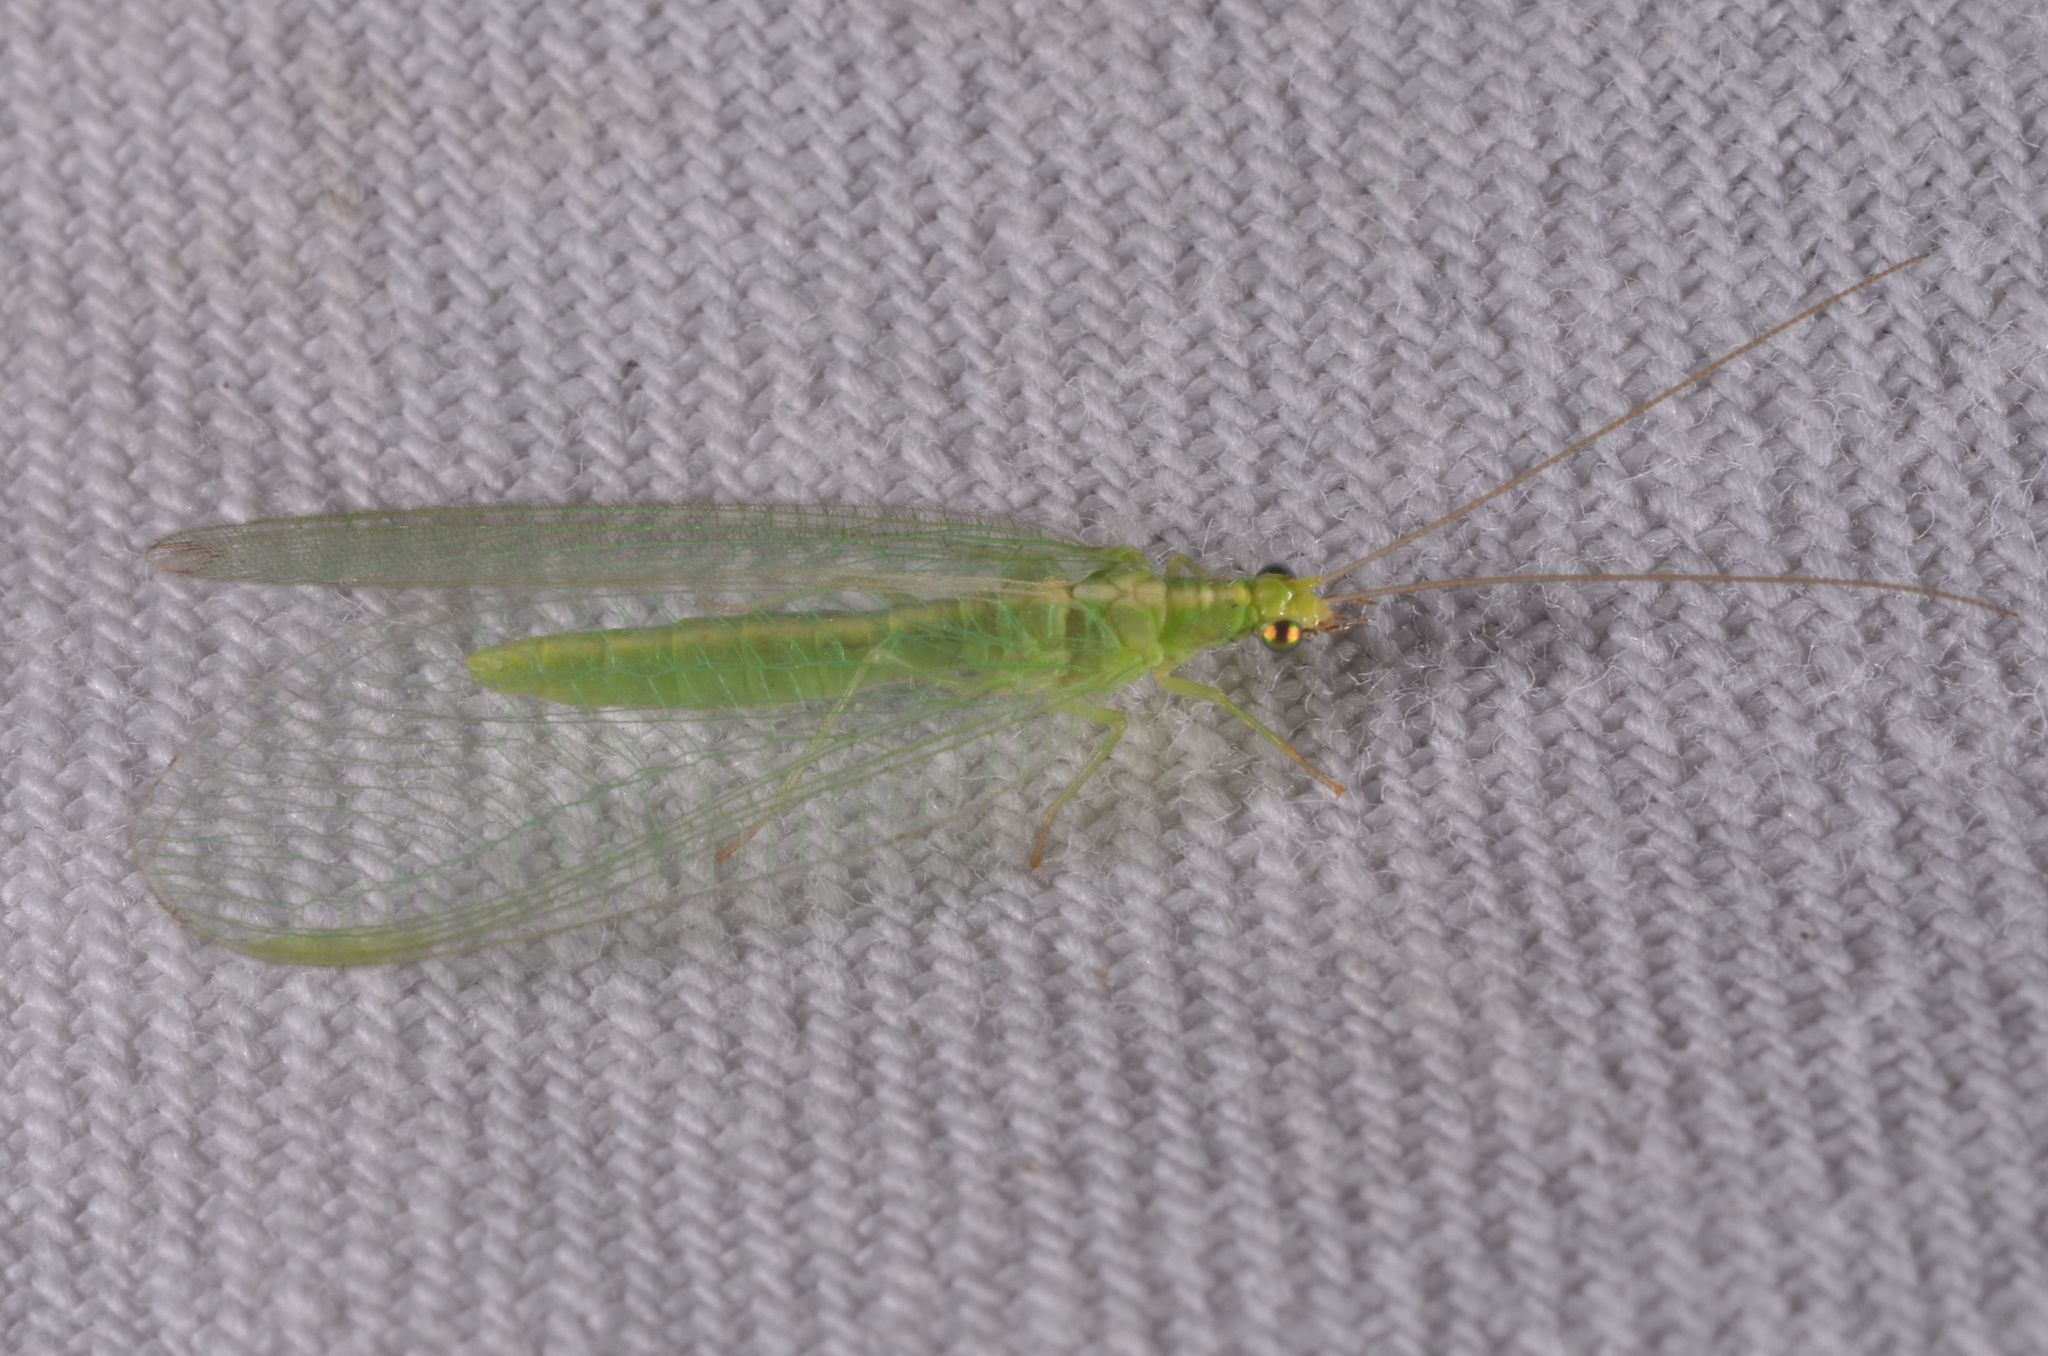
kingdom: Animalia
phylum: Arthropoda
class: Insecta
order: Neuroptera
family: Chrysopidae
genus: Chrysoperla
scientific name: Chrysoperla
